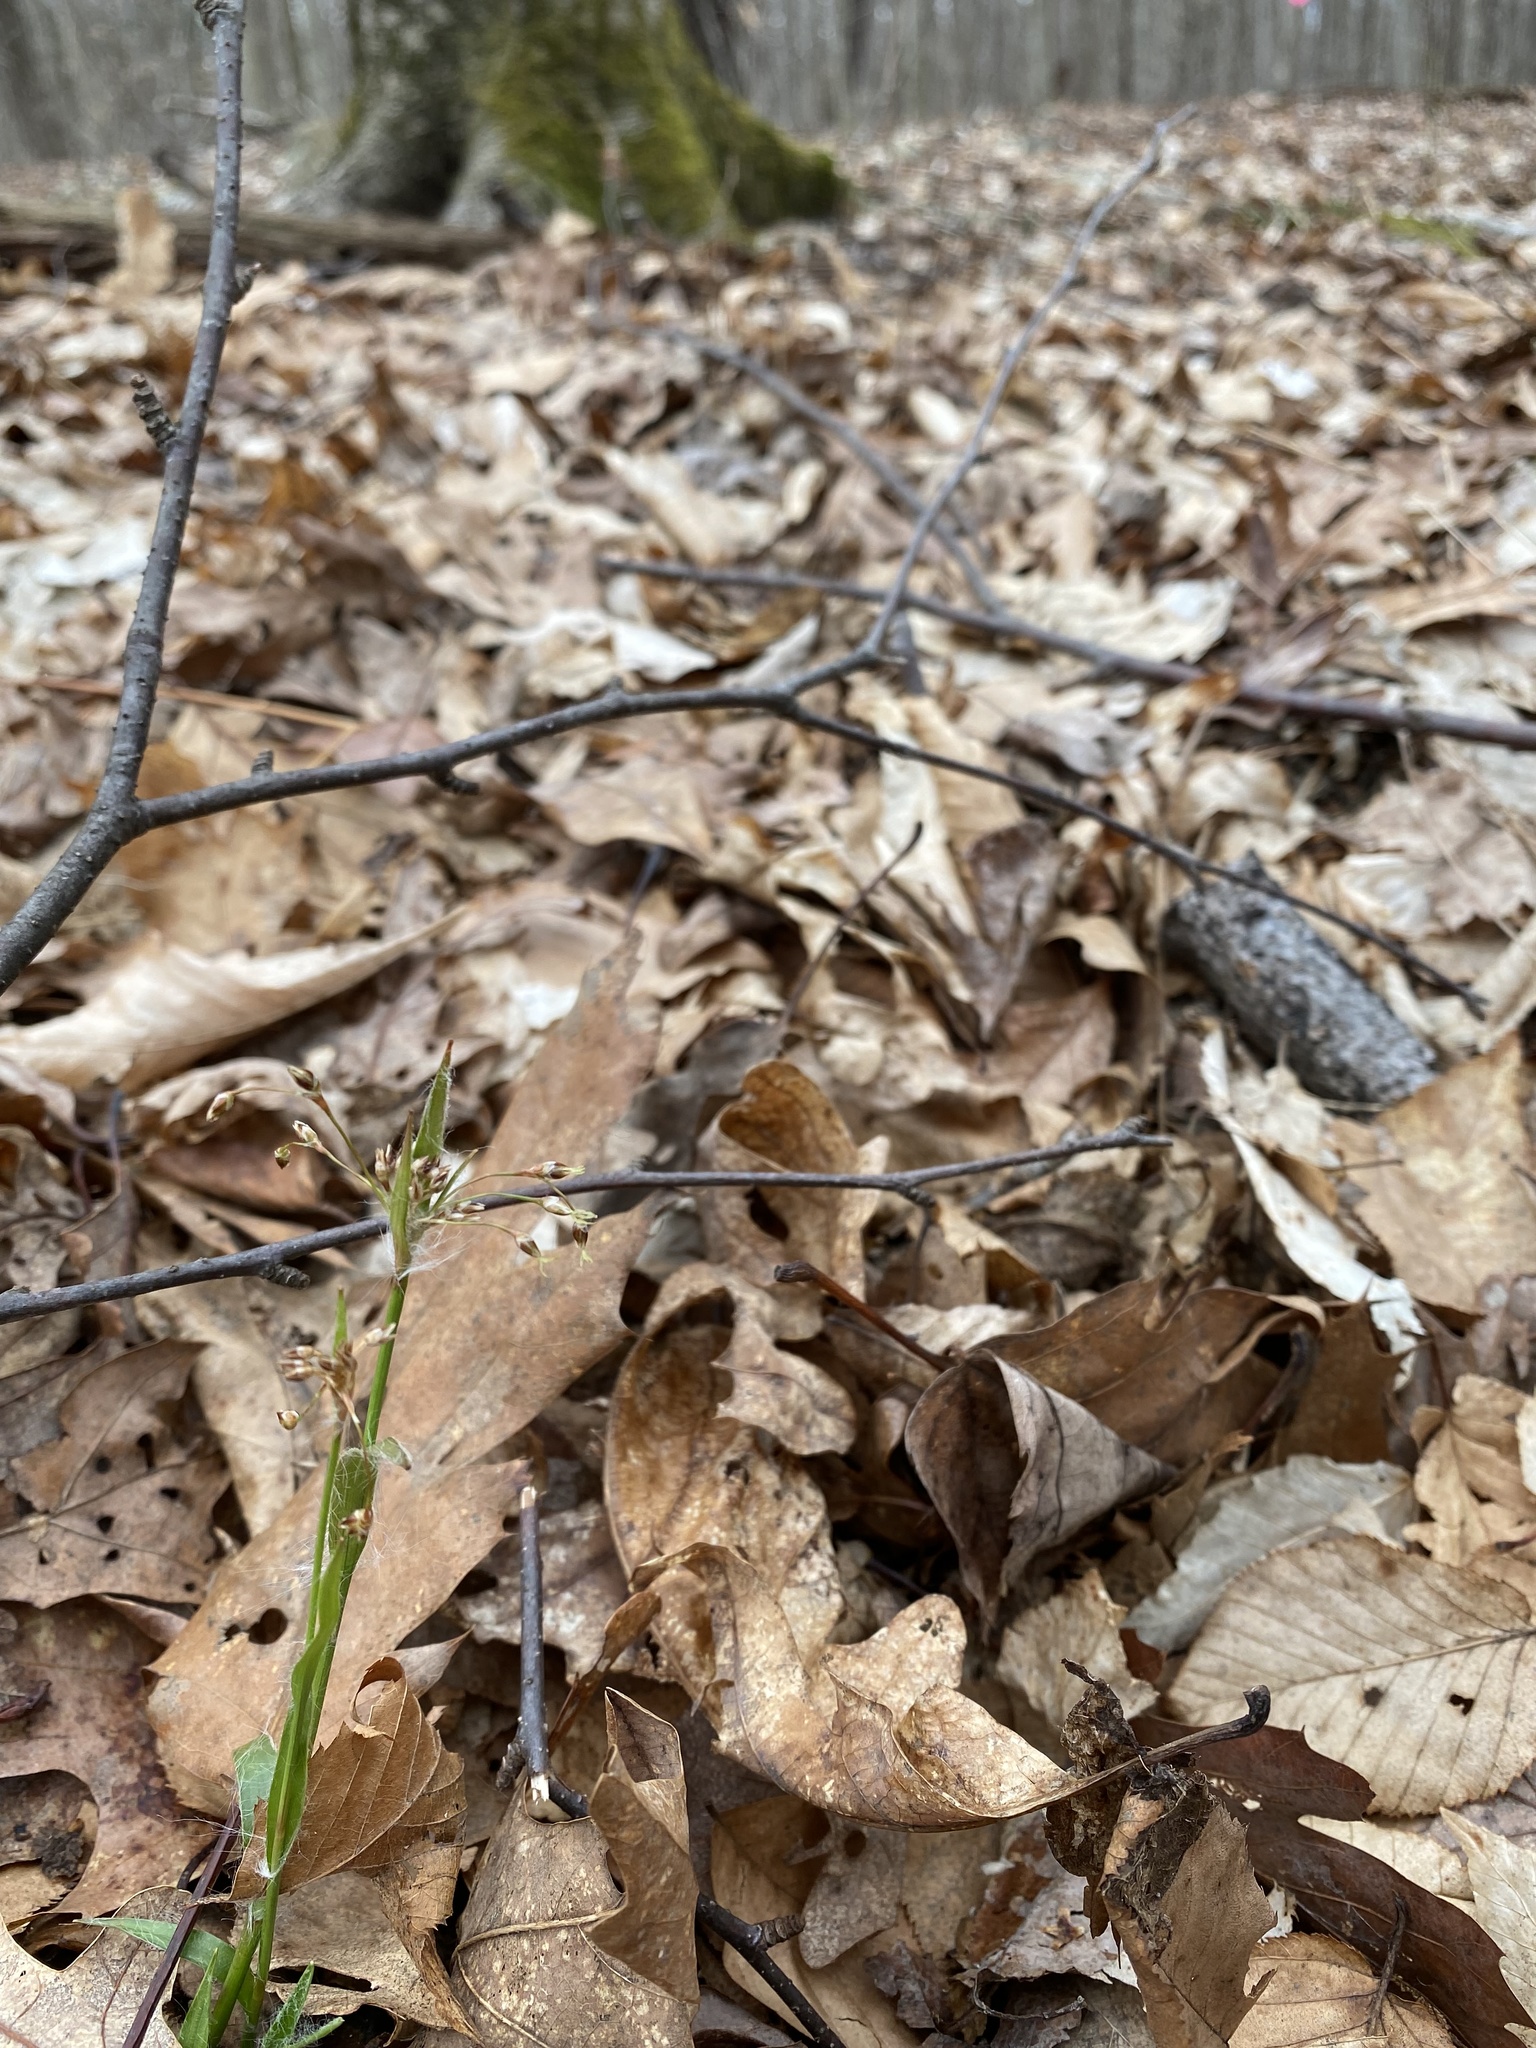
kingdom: Plantae
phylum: Tracheophyta
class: Liliopsida
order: Poales
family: Juncaceae
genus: Luzula
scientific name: Luzula acuminata
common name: Hairy woodrush
